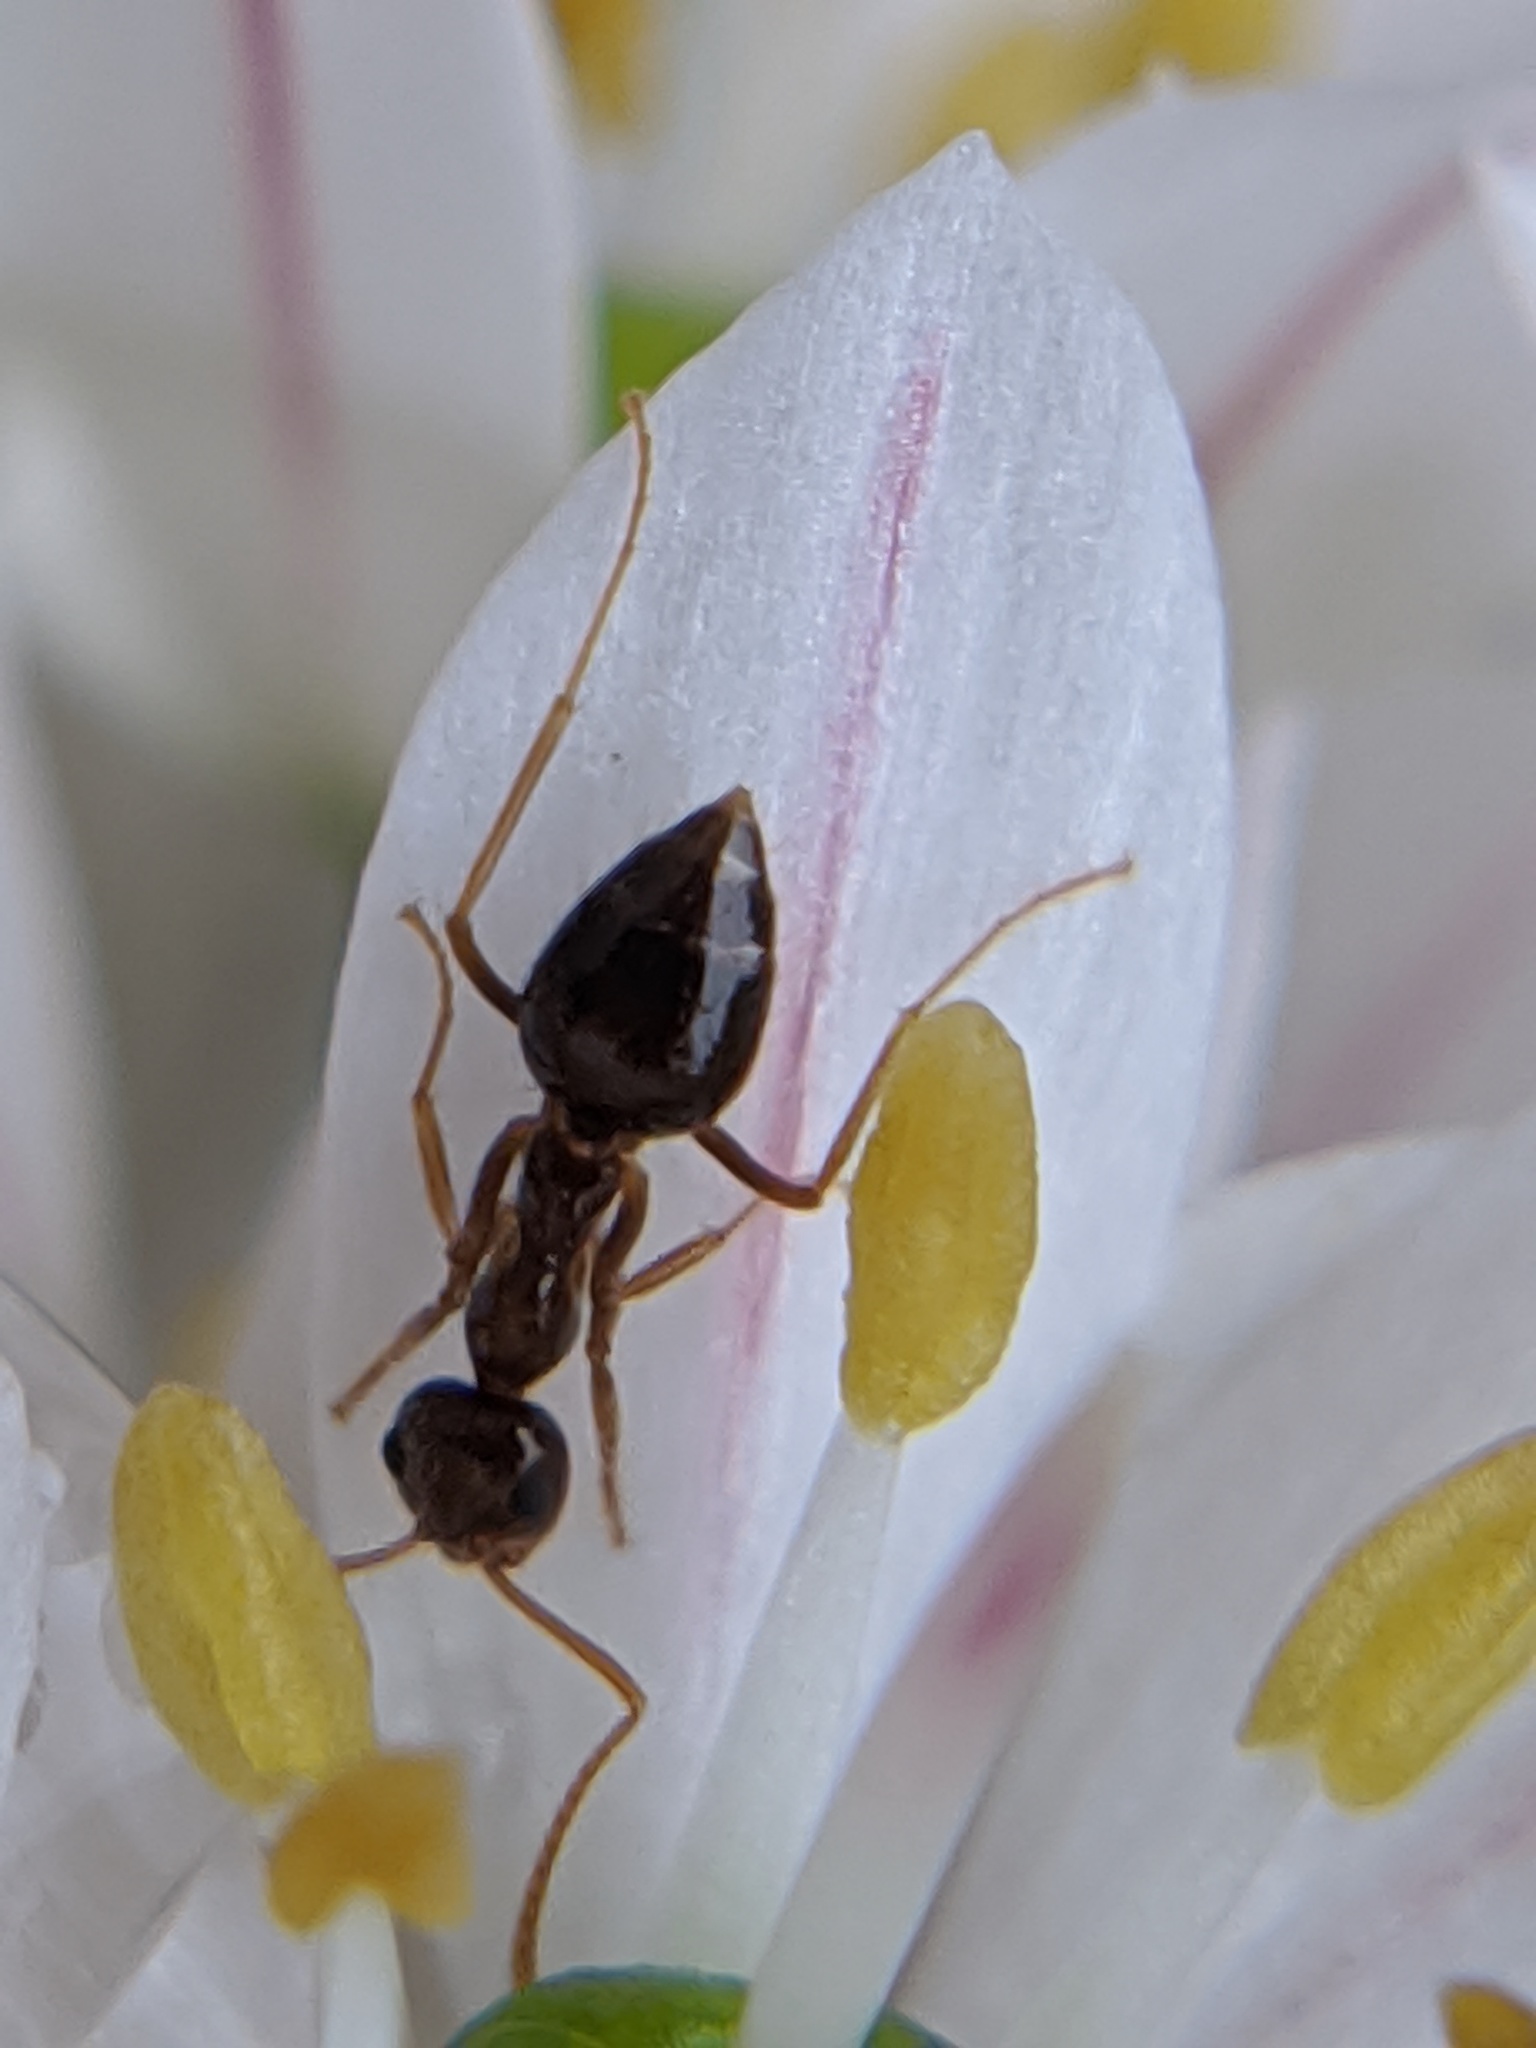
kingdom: Animalia
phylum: Arthropoda
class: Insecta
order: Hymenoptera
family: Formicidae
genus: Prenolepis
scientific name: Prenolepis imparis
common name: Small honey ant
